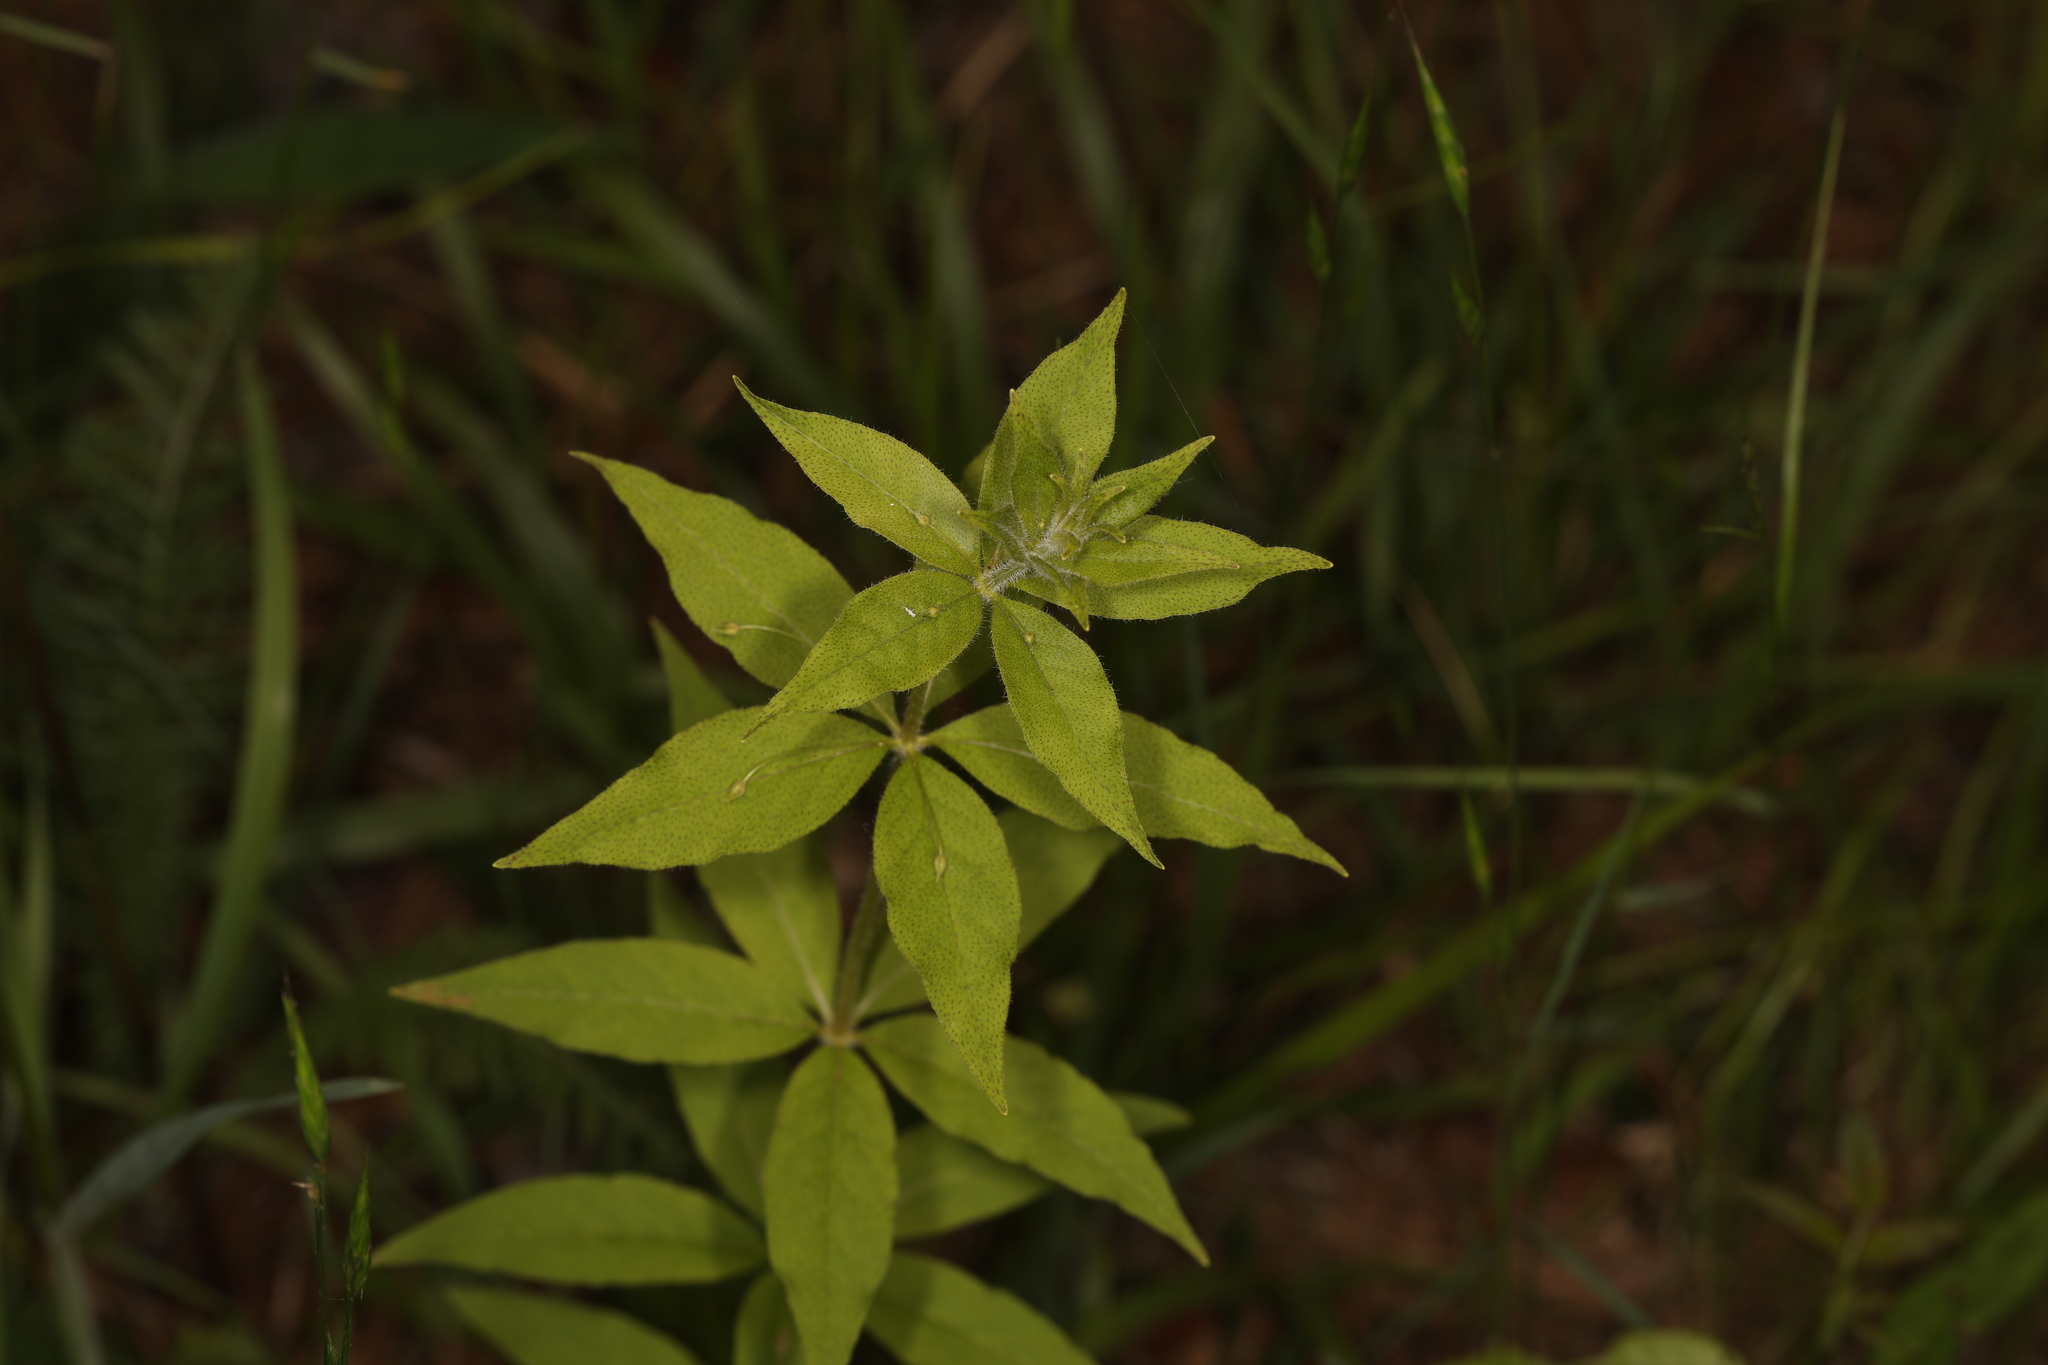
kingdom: Plantae
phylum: Tracheophyta
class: Magnoliopsida
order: Ericales
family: Primulaceae
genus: Lysimachia
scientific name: Lysimachia quadrifolia
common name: Whorled loosestrife
